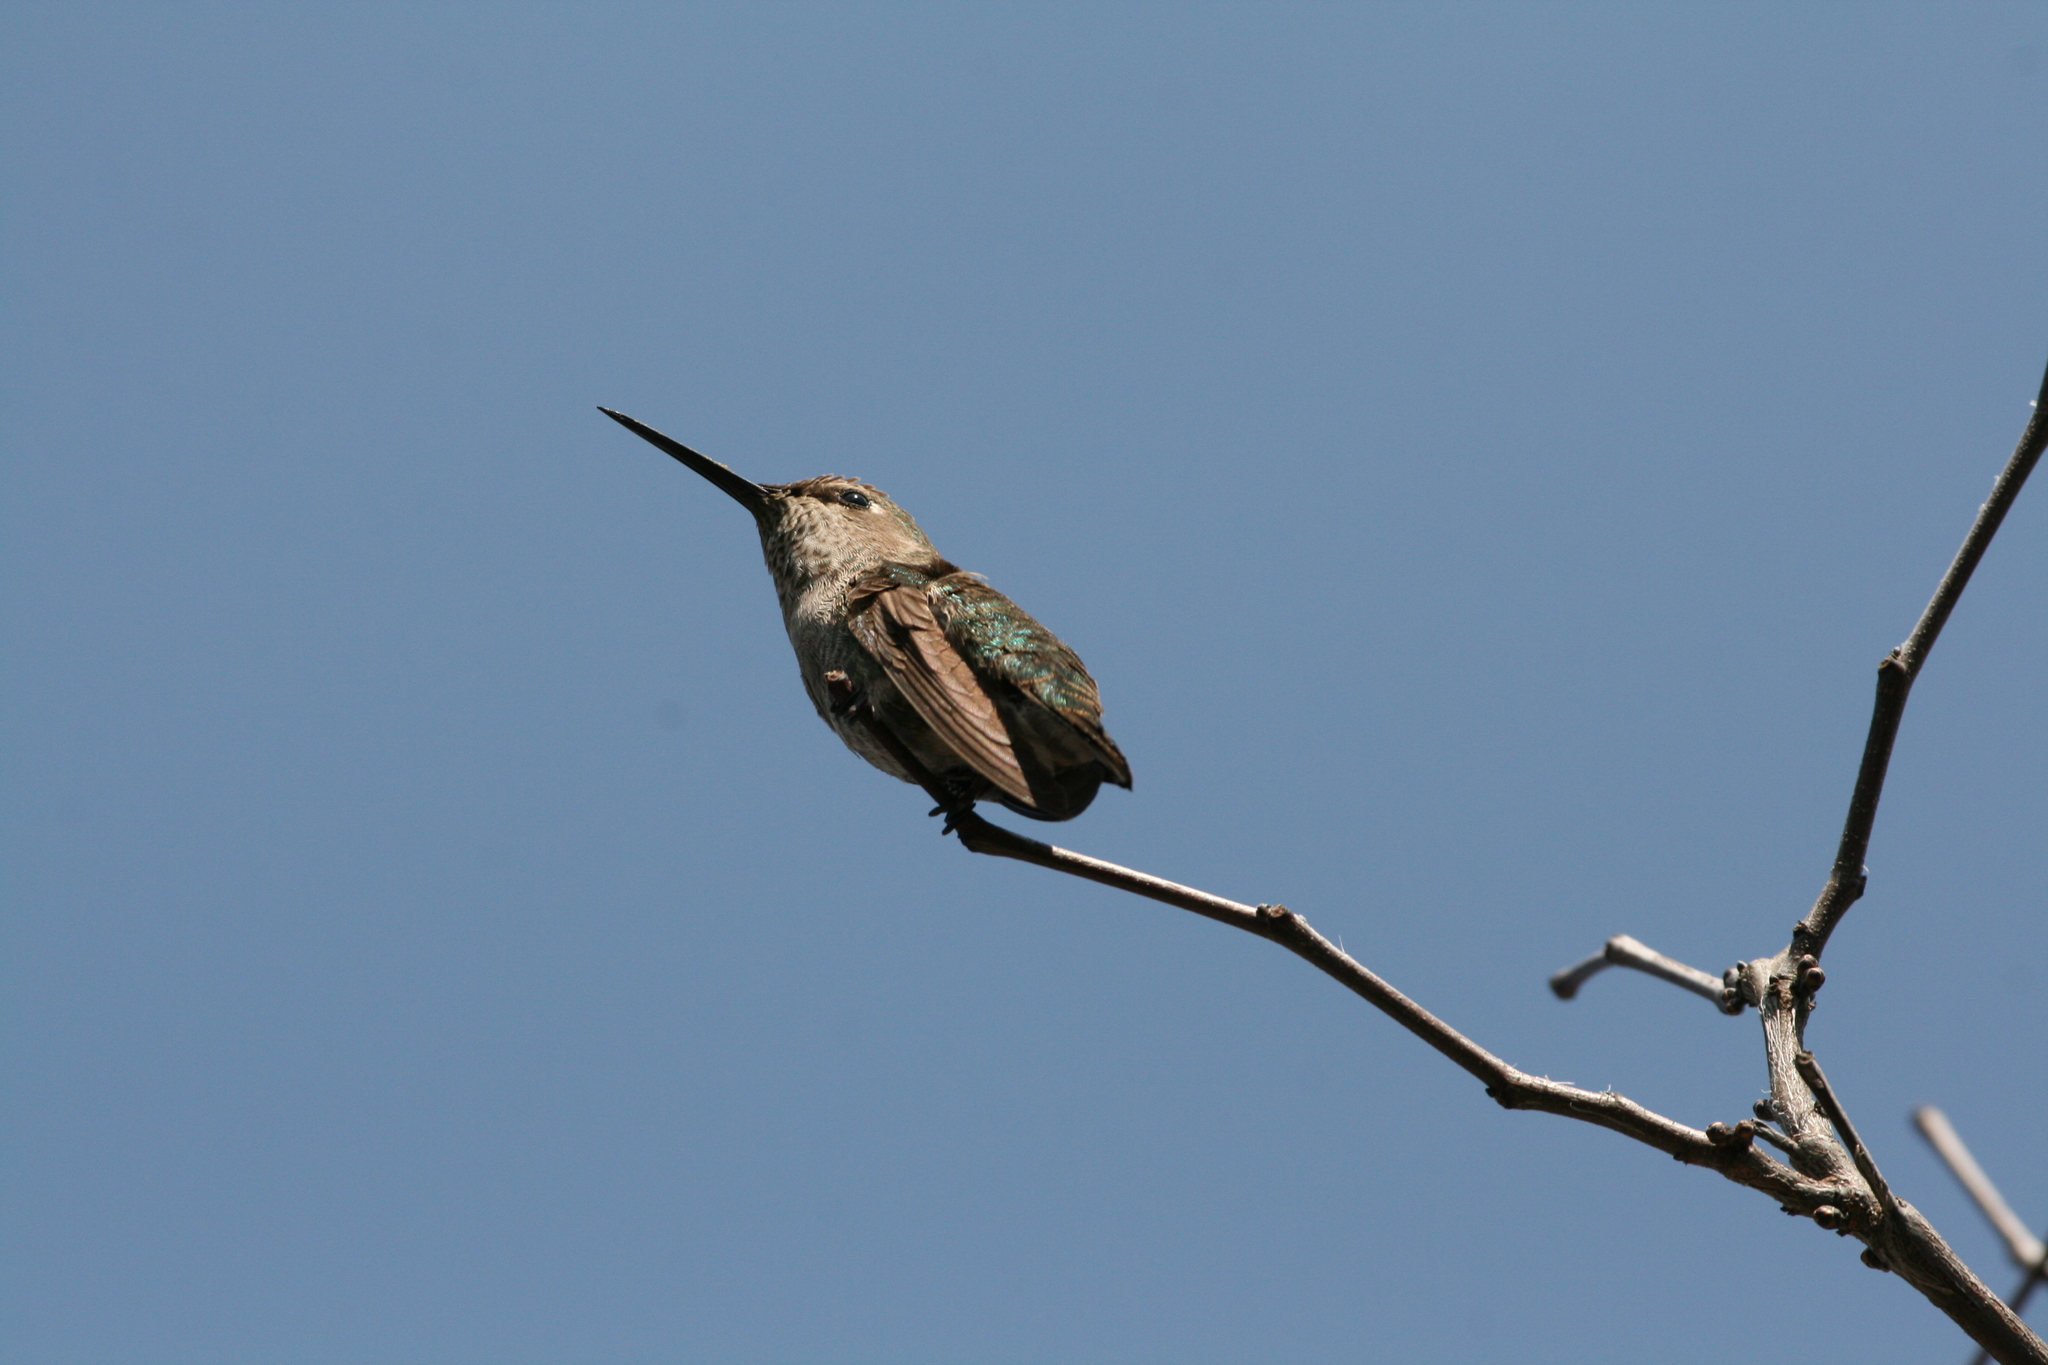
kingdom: Animalia
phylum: Chordata
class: Aves
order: Apodiformes
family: Trochilidae
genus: Calypte
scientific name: Calypte anna
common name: Anna's hummingbird
